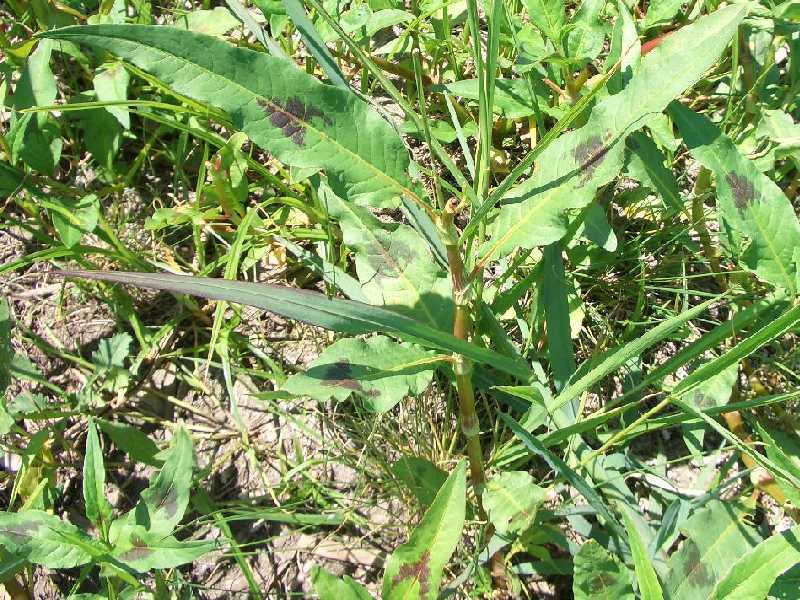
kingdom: Plantae
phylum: Tracheophyta
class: Magnoliopsida
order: Caryophyllales
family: Polygonaceae
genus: Persicaria
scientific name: Persicaria maculosa
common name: Redshank
